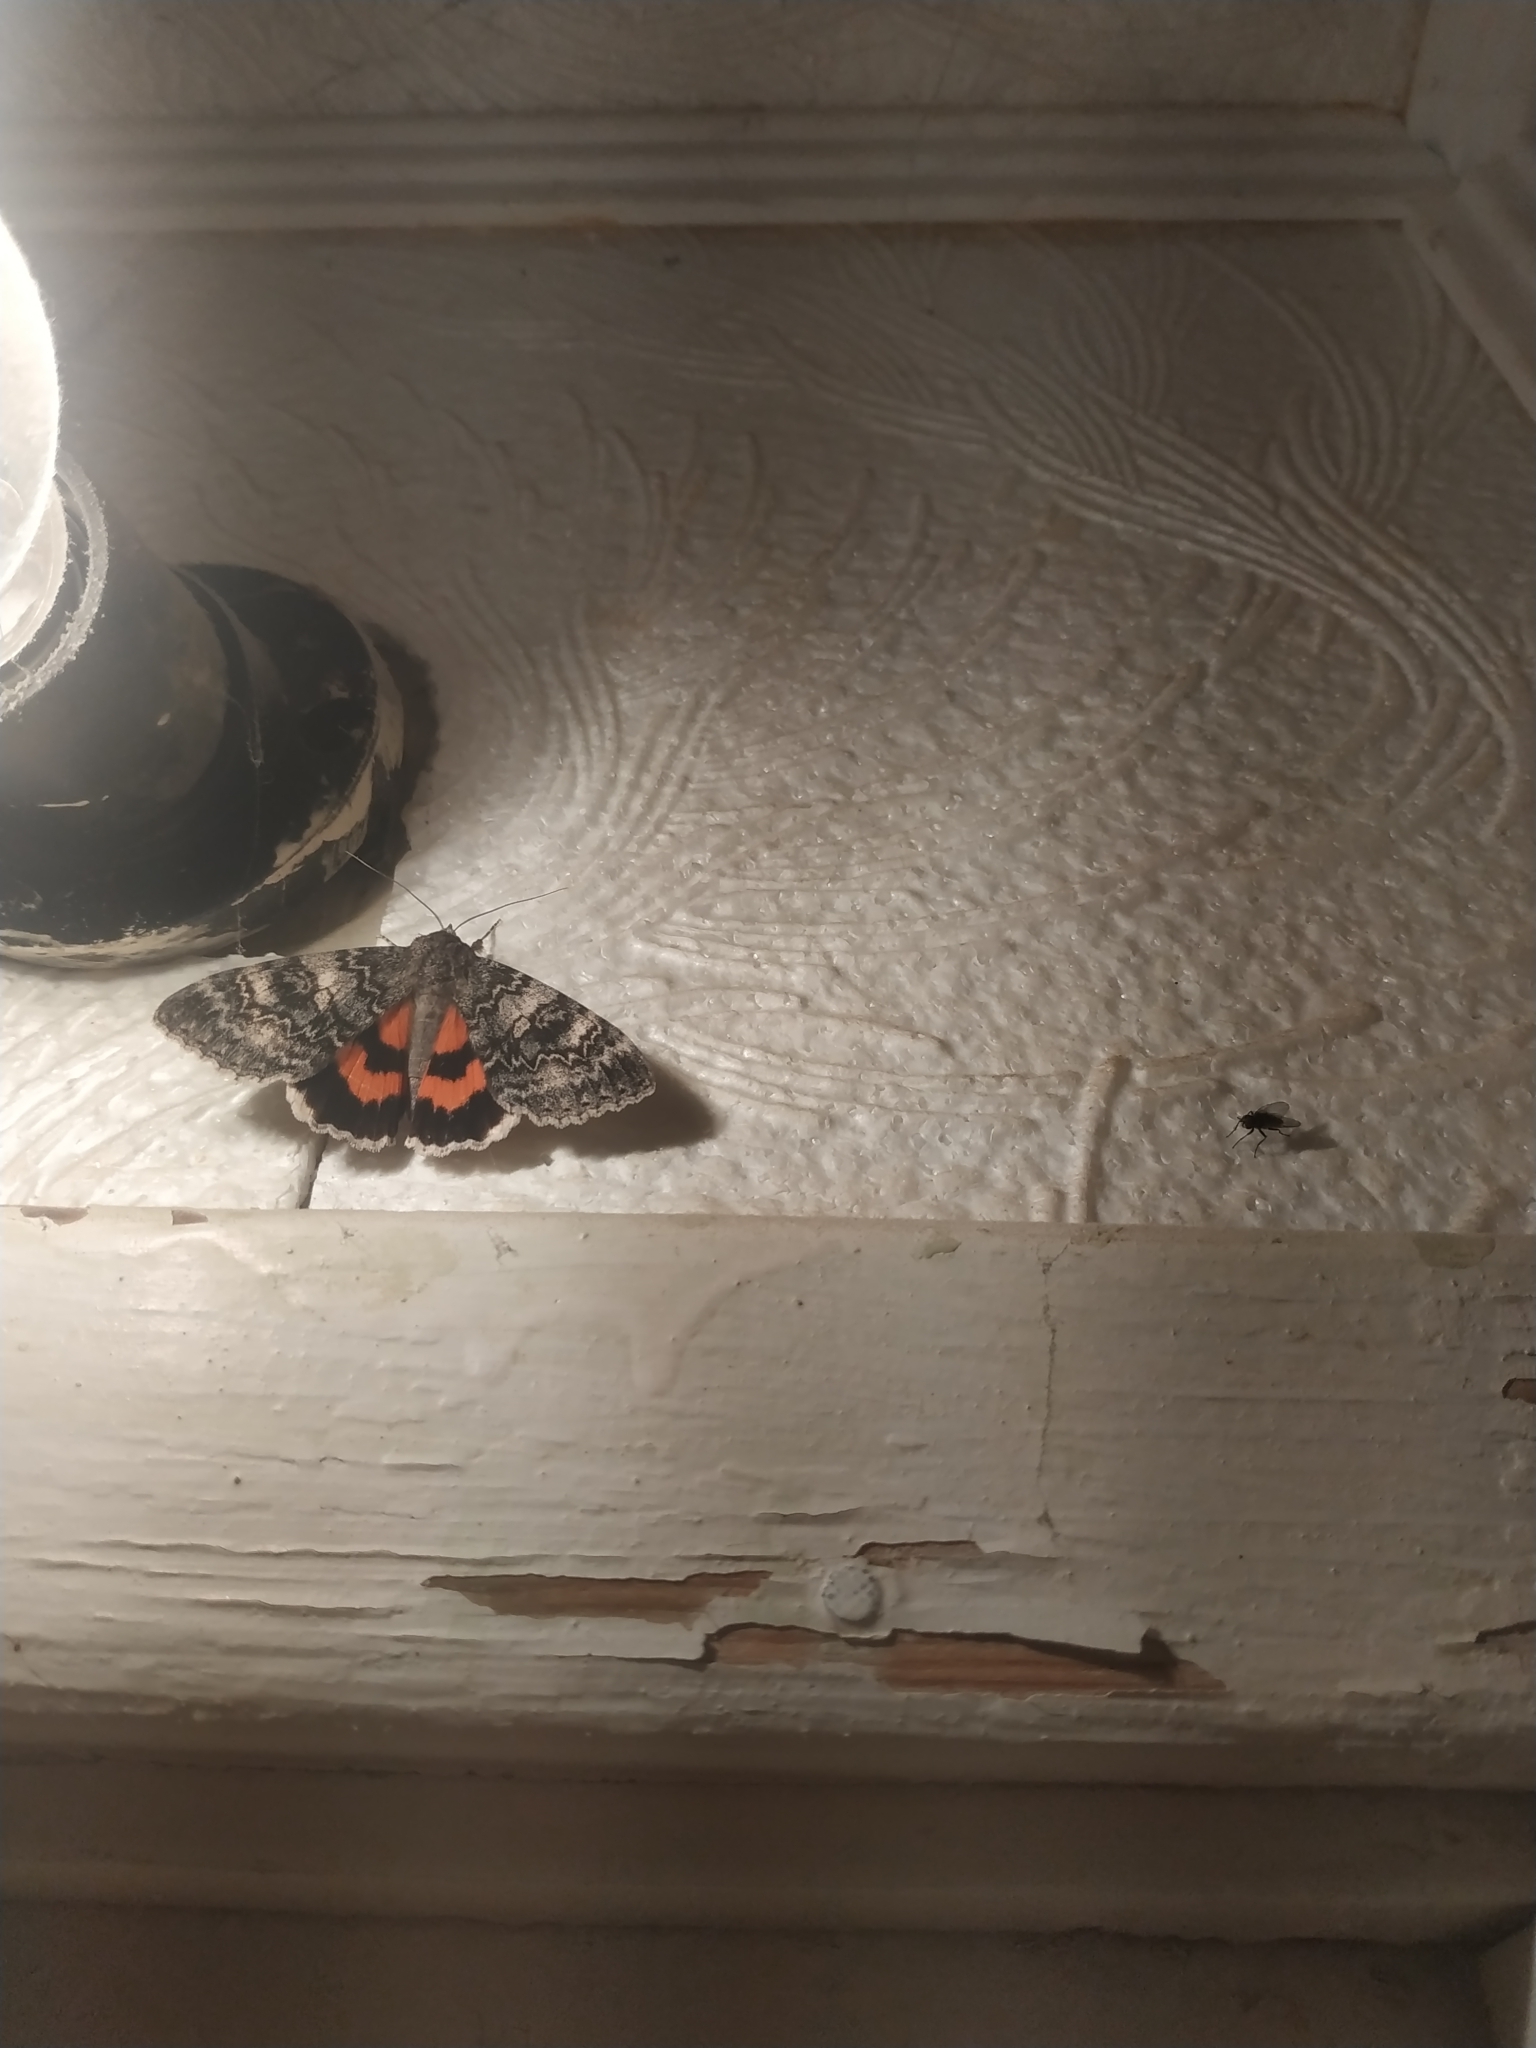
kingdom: Animalia
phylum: Arthropoda
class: Insecta
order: Lepidoptera
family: Erebidae
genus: Catocala
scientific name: Catocala adultera
